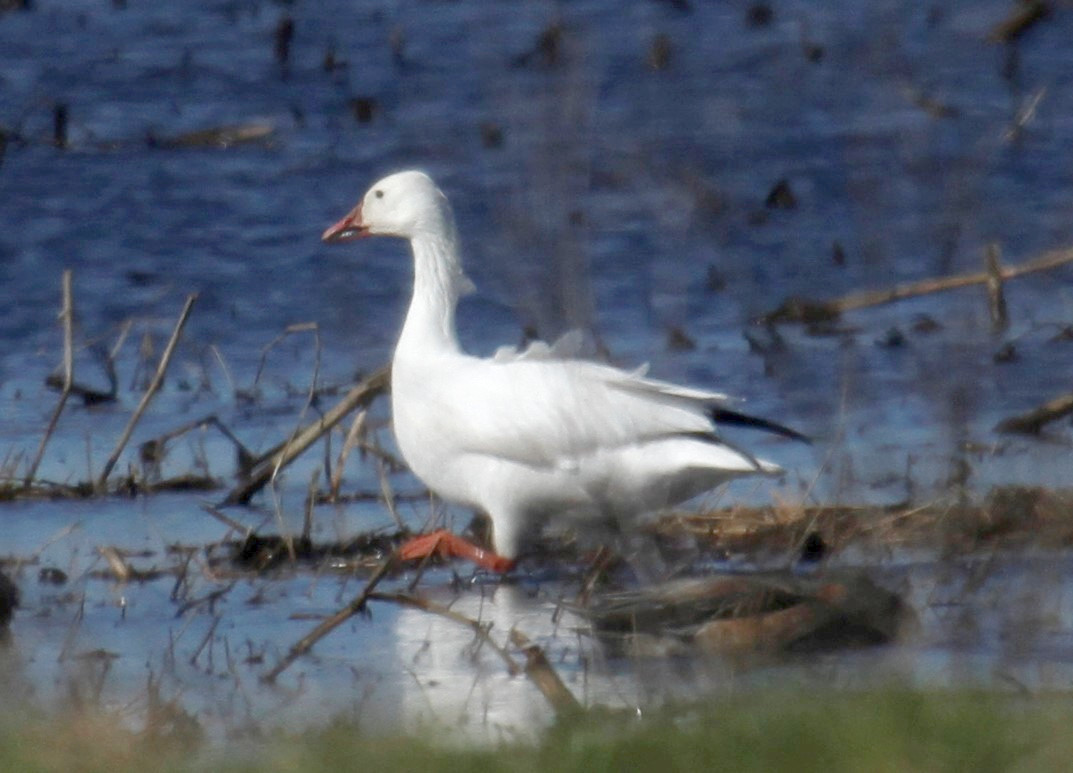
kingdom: Animalia
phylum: Chordata
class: Aves
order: Anseriformes
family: Anatidae
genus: Anser
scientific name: Anser caerulescens
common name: Snow goose
